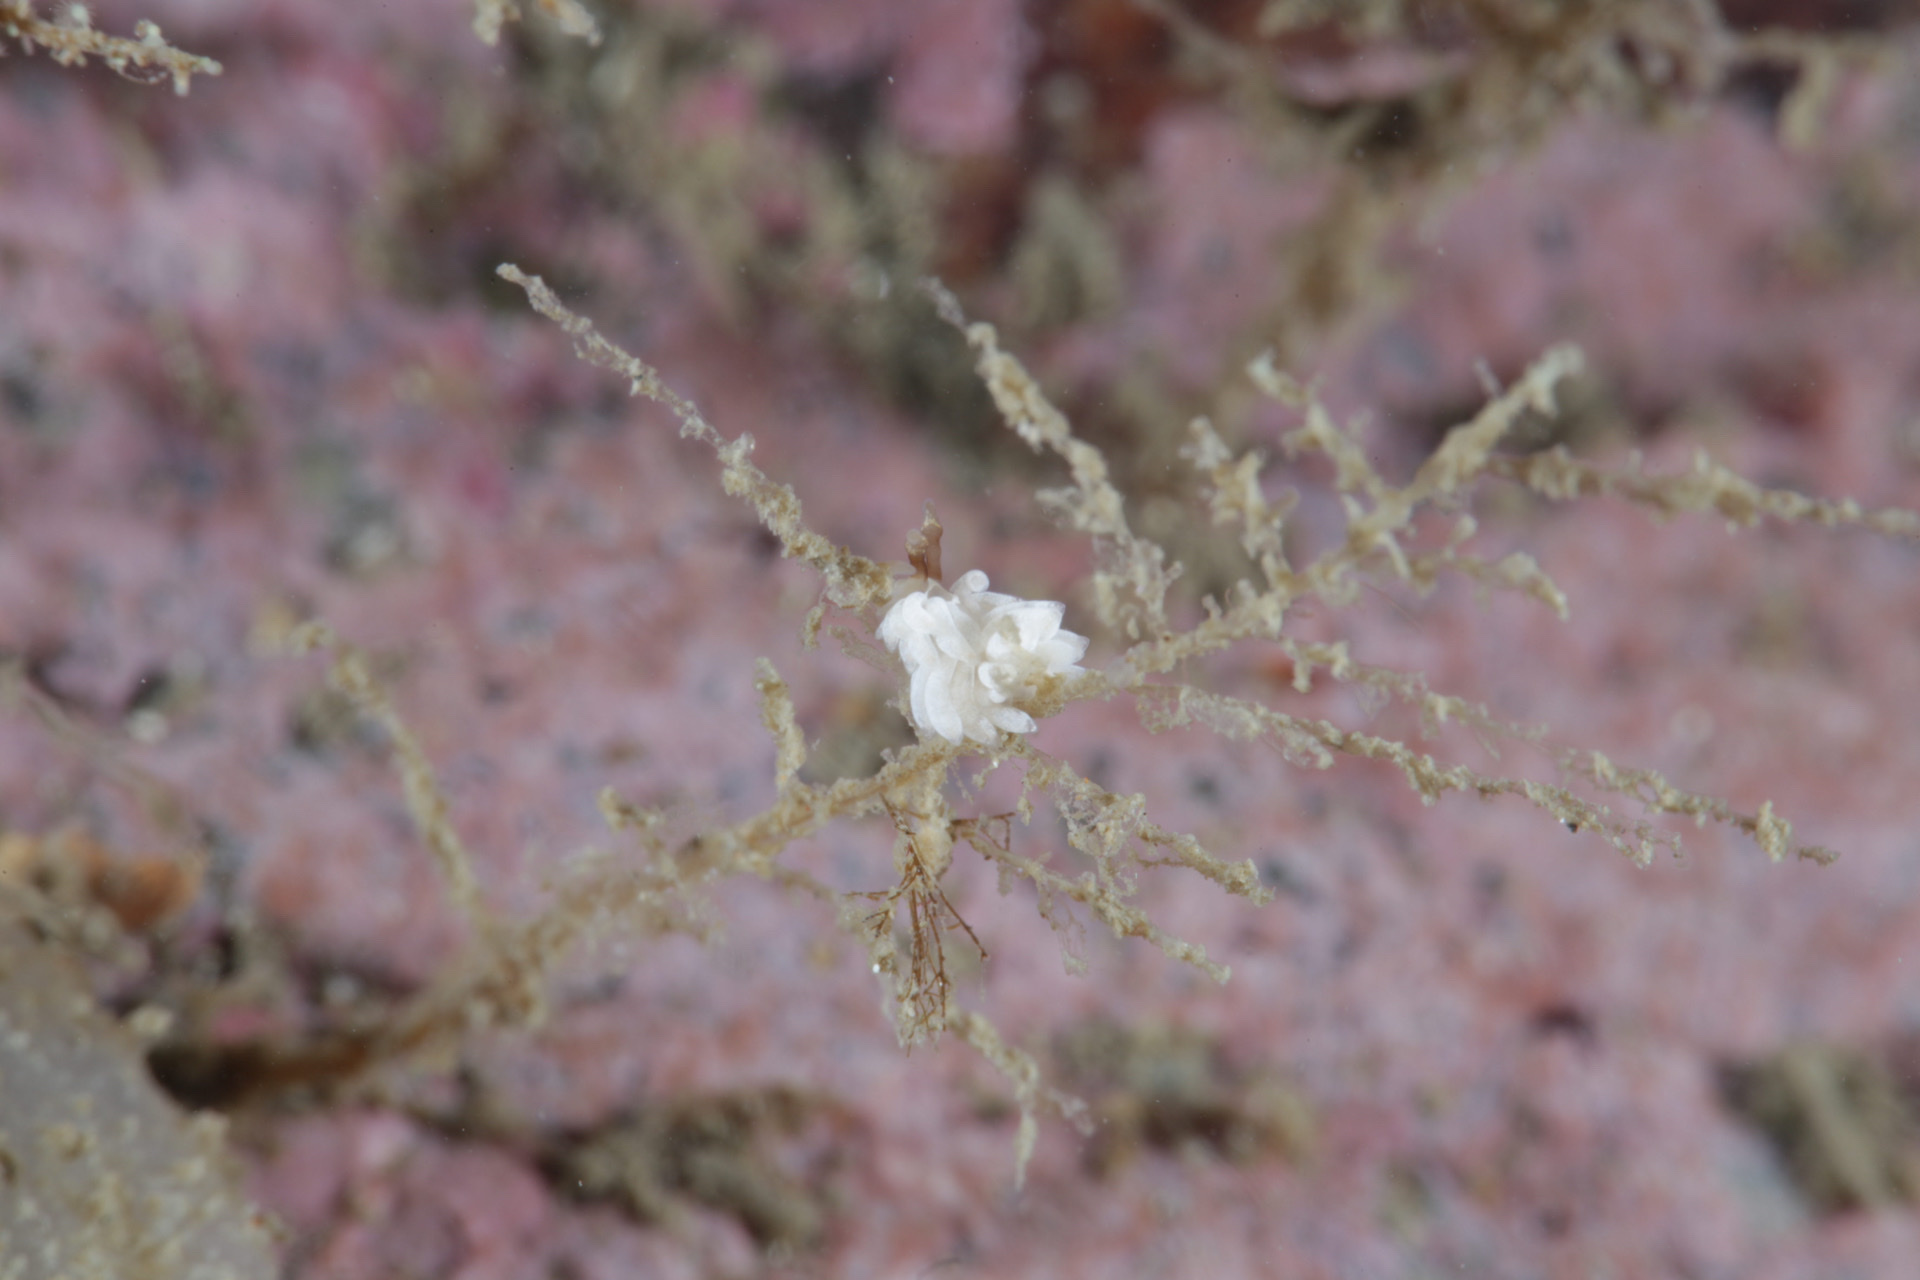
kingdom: Animalia
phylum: Mollusca
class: Gastropoda
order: Nudibranchia
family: Facelinidae
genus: Favorinus
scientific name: Favorinus branchialis
